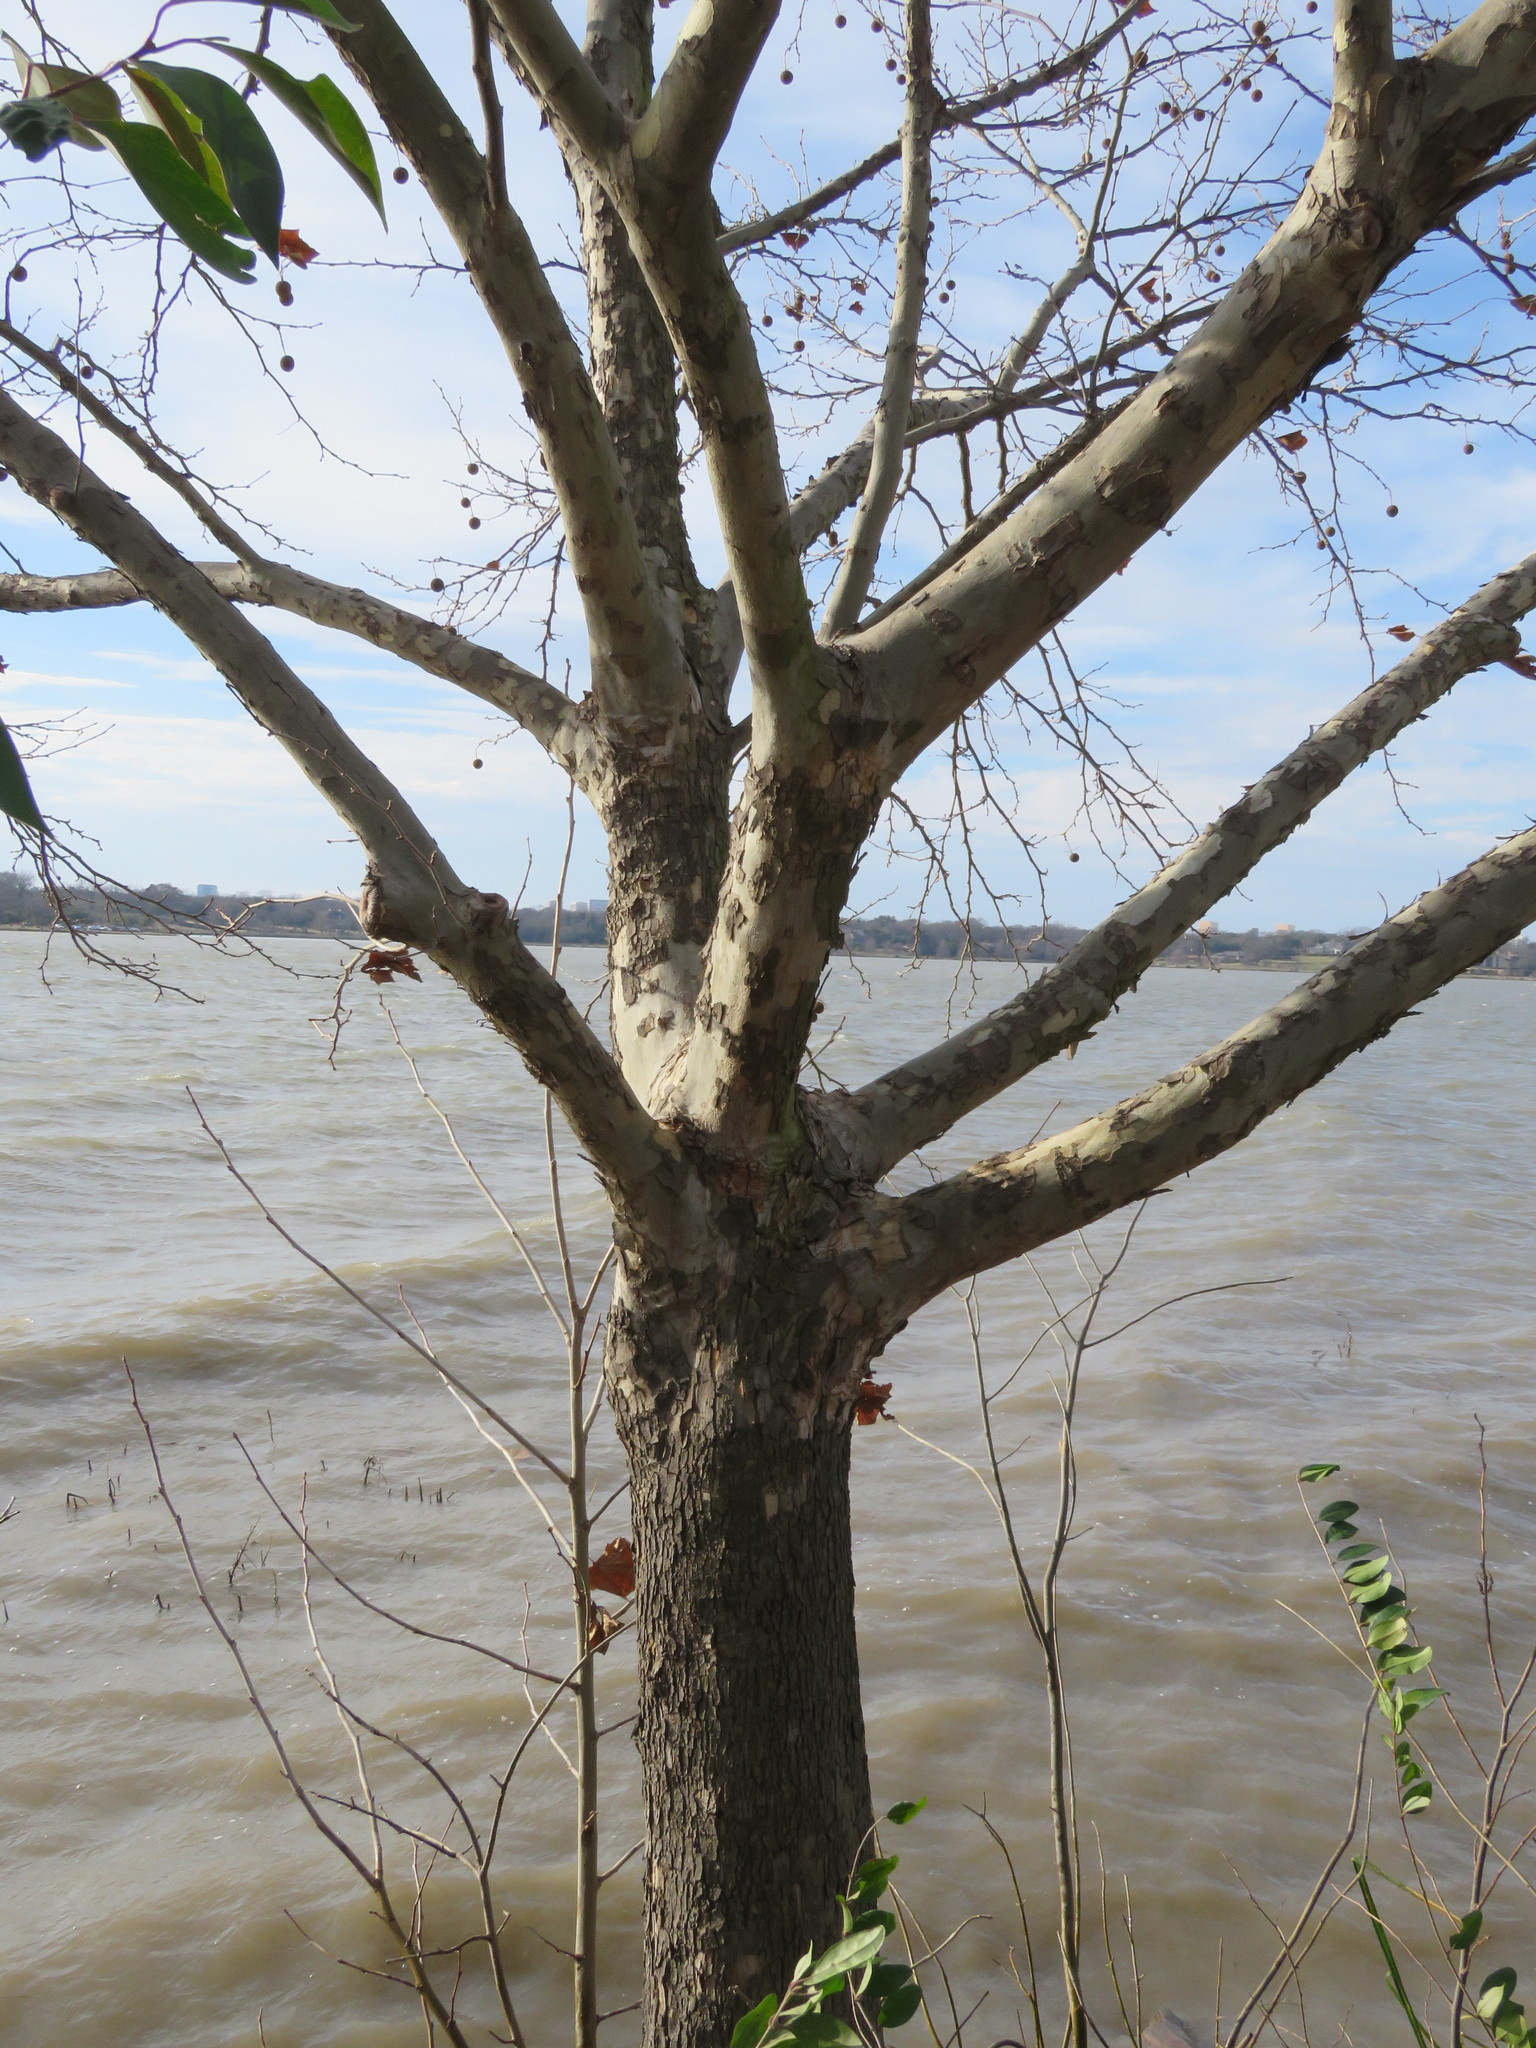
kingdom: Plantae
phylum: Tracheophyta
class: Magnoliopsida
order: Proteales
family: Platanaceae
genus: Platanus
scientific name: Platanus occidentalis
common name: American sycamore
